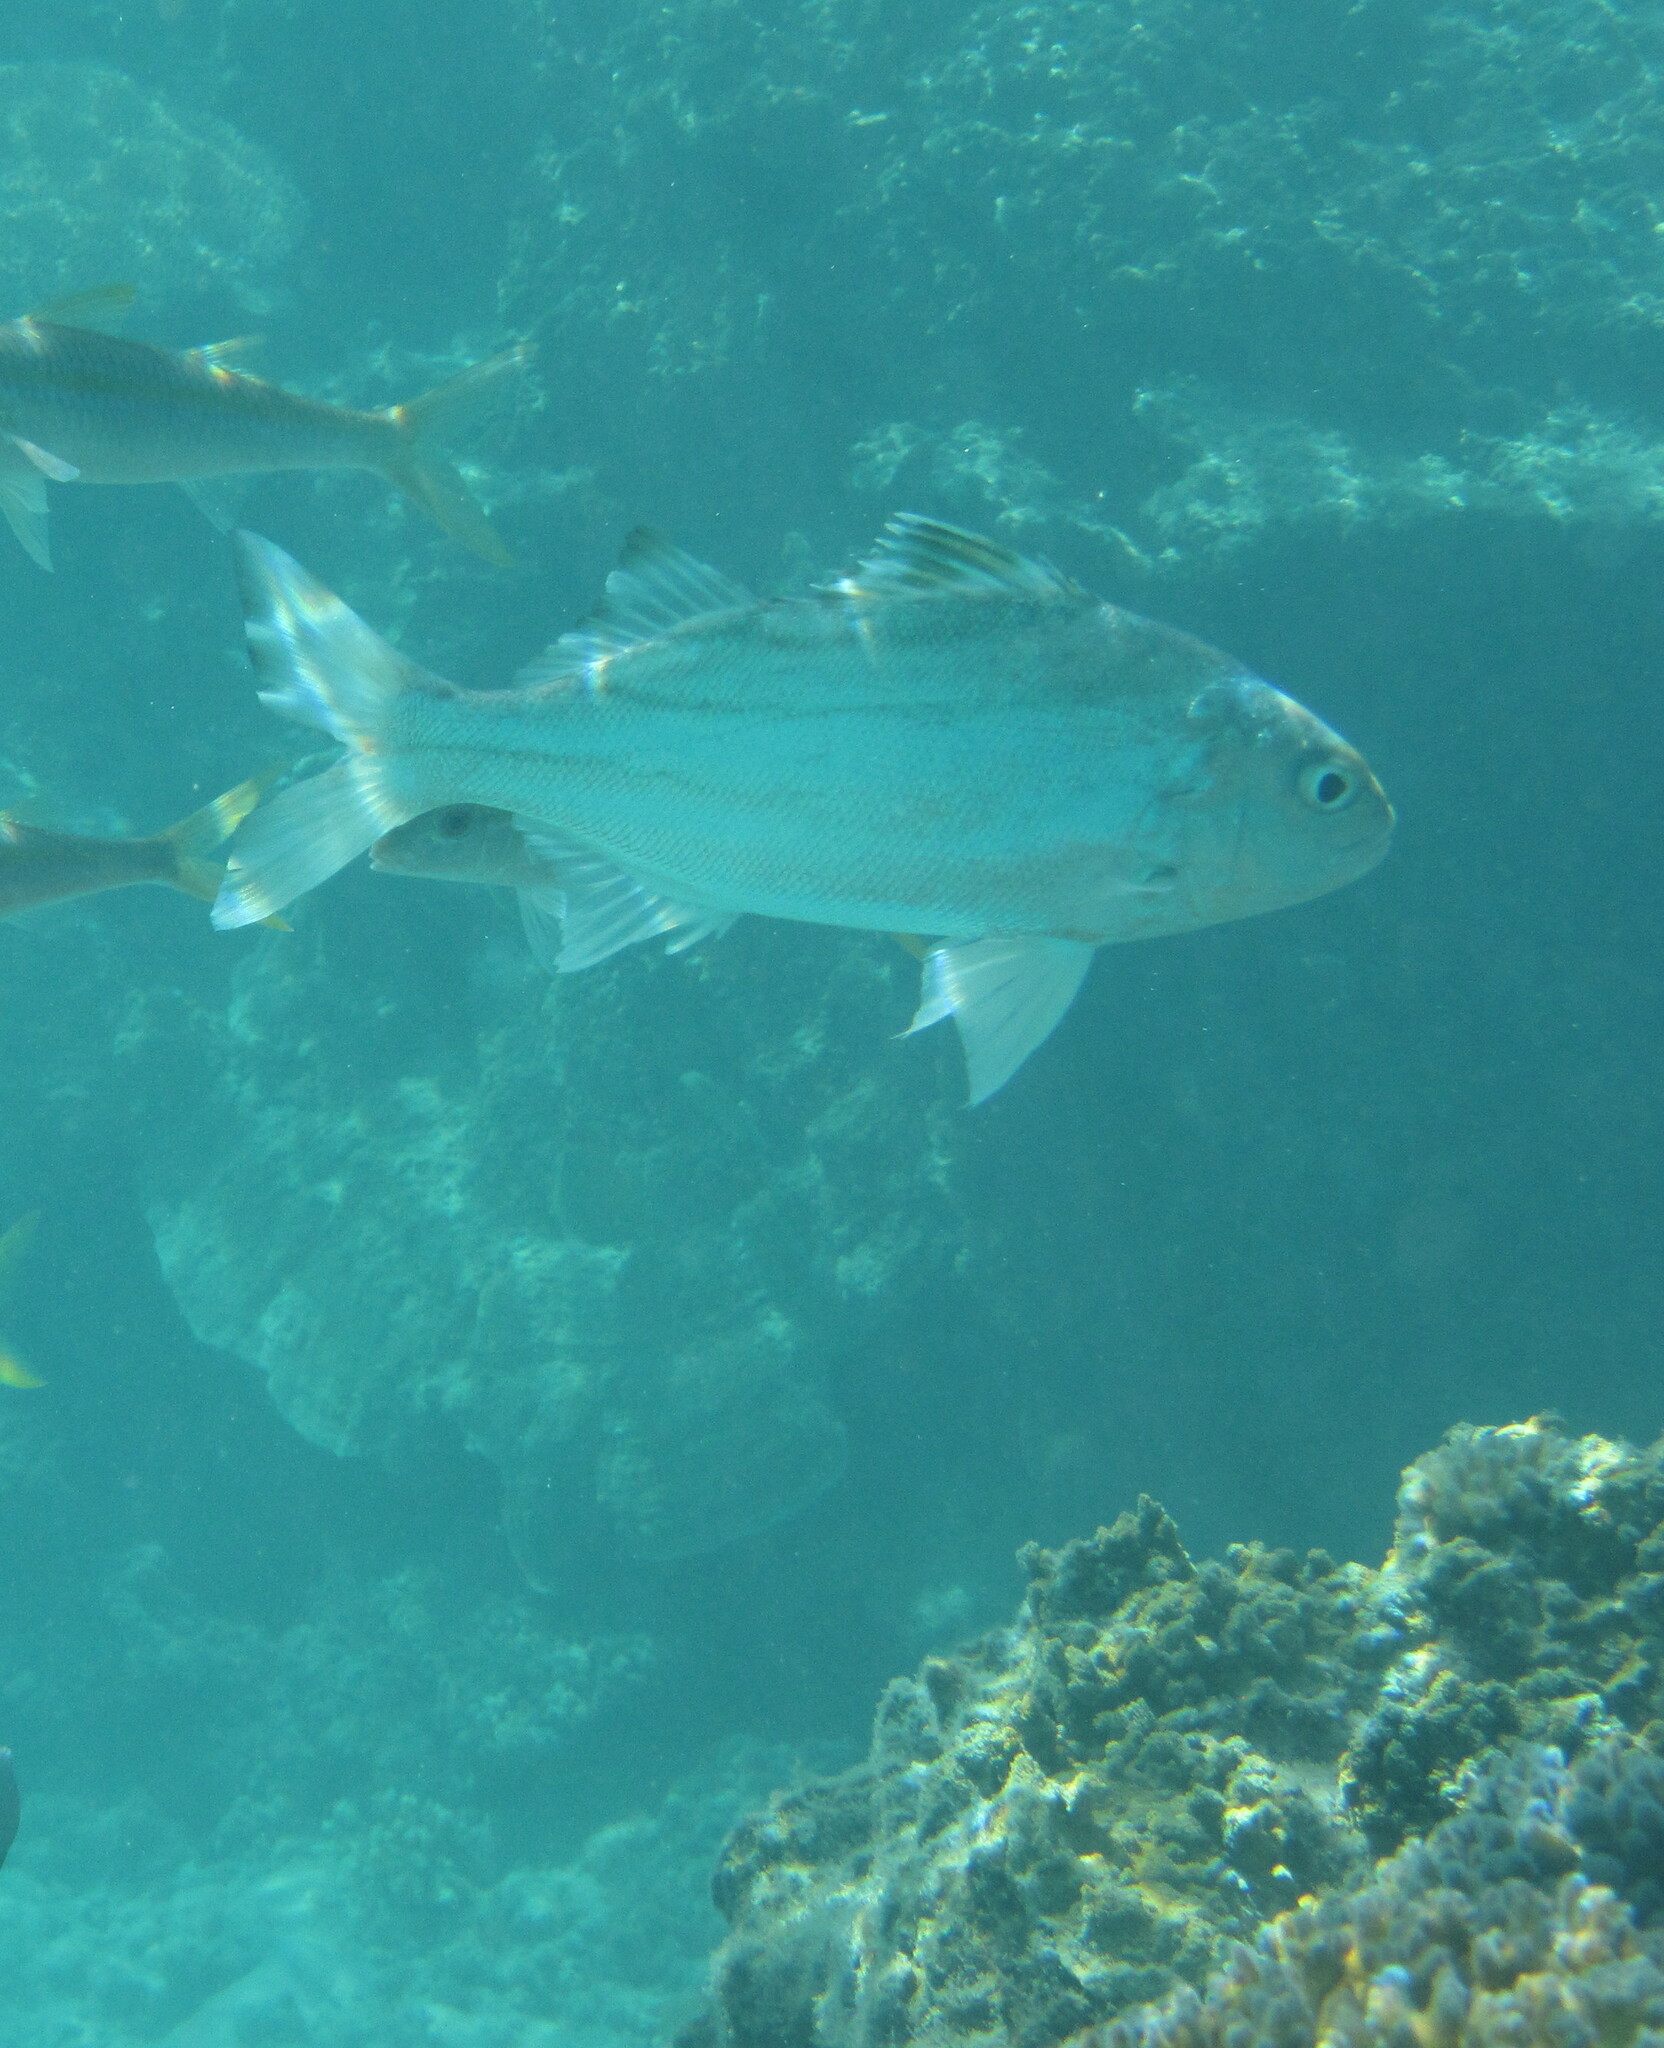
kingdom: Animalia
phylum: Chordata
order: Perciformes
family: Terapontidae
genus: Terapon
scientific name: Terapon jarbua
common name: Jarbua terapon
